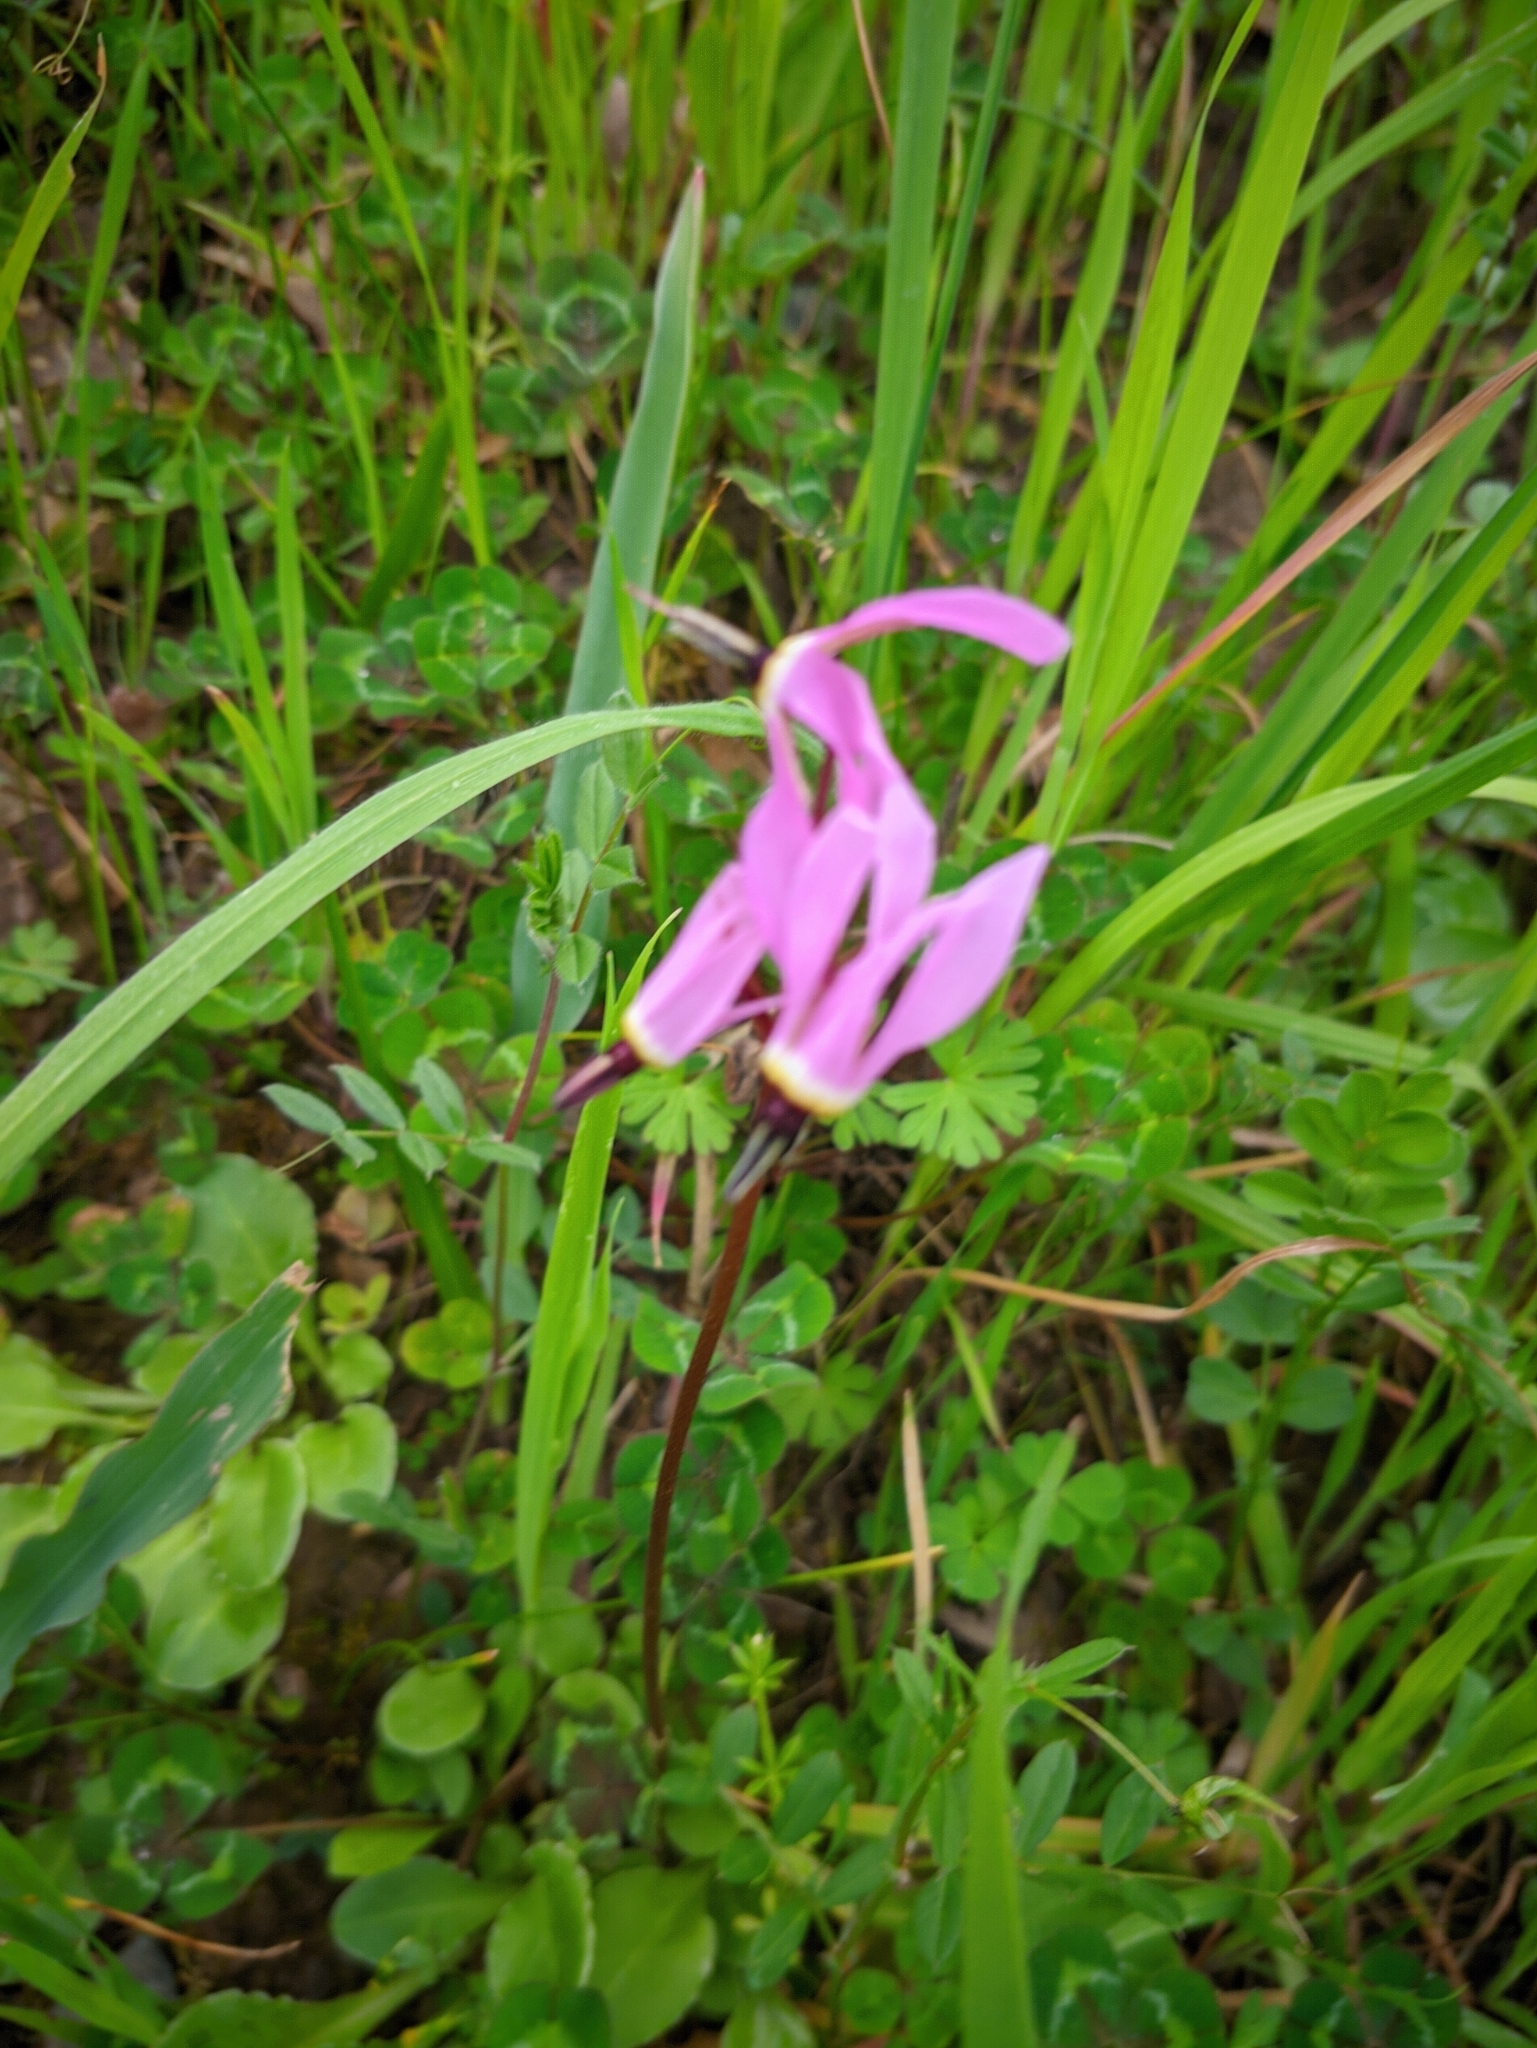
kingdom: Plantae
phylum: Tracheophyta
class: Magnoliopsida
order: Ericales
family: Primulaceae
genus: Dodecatheon
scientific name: Dodecatheon hendersonii
